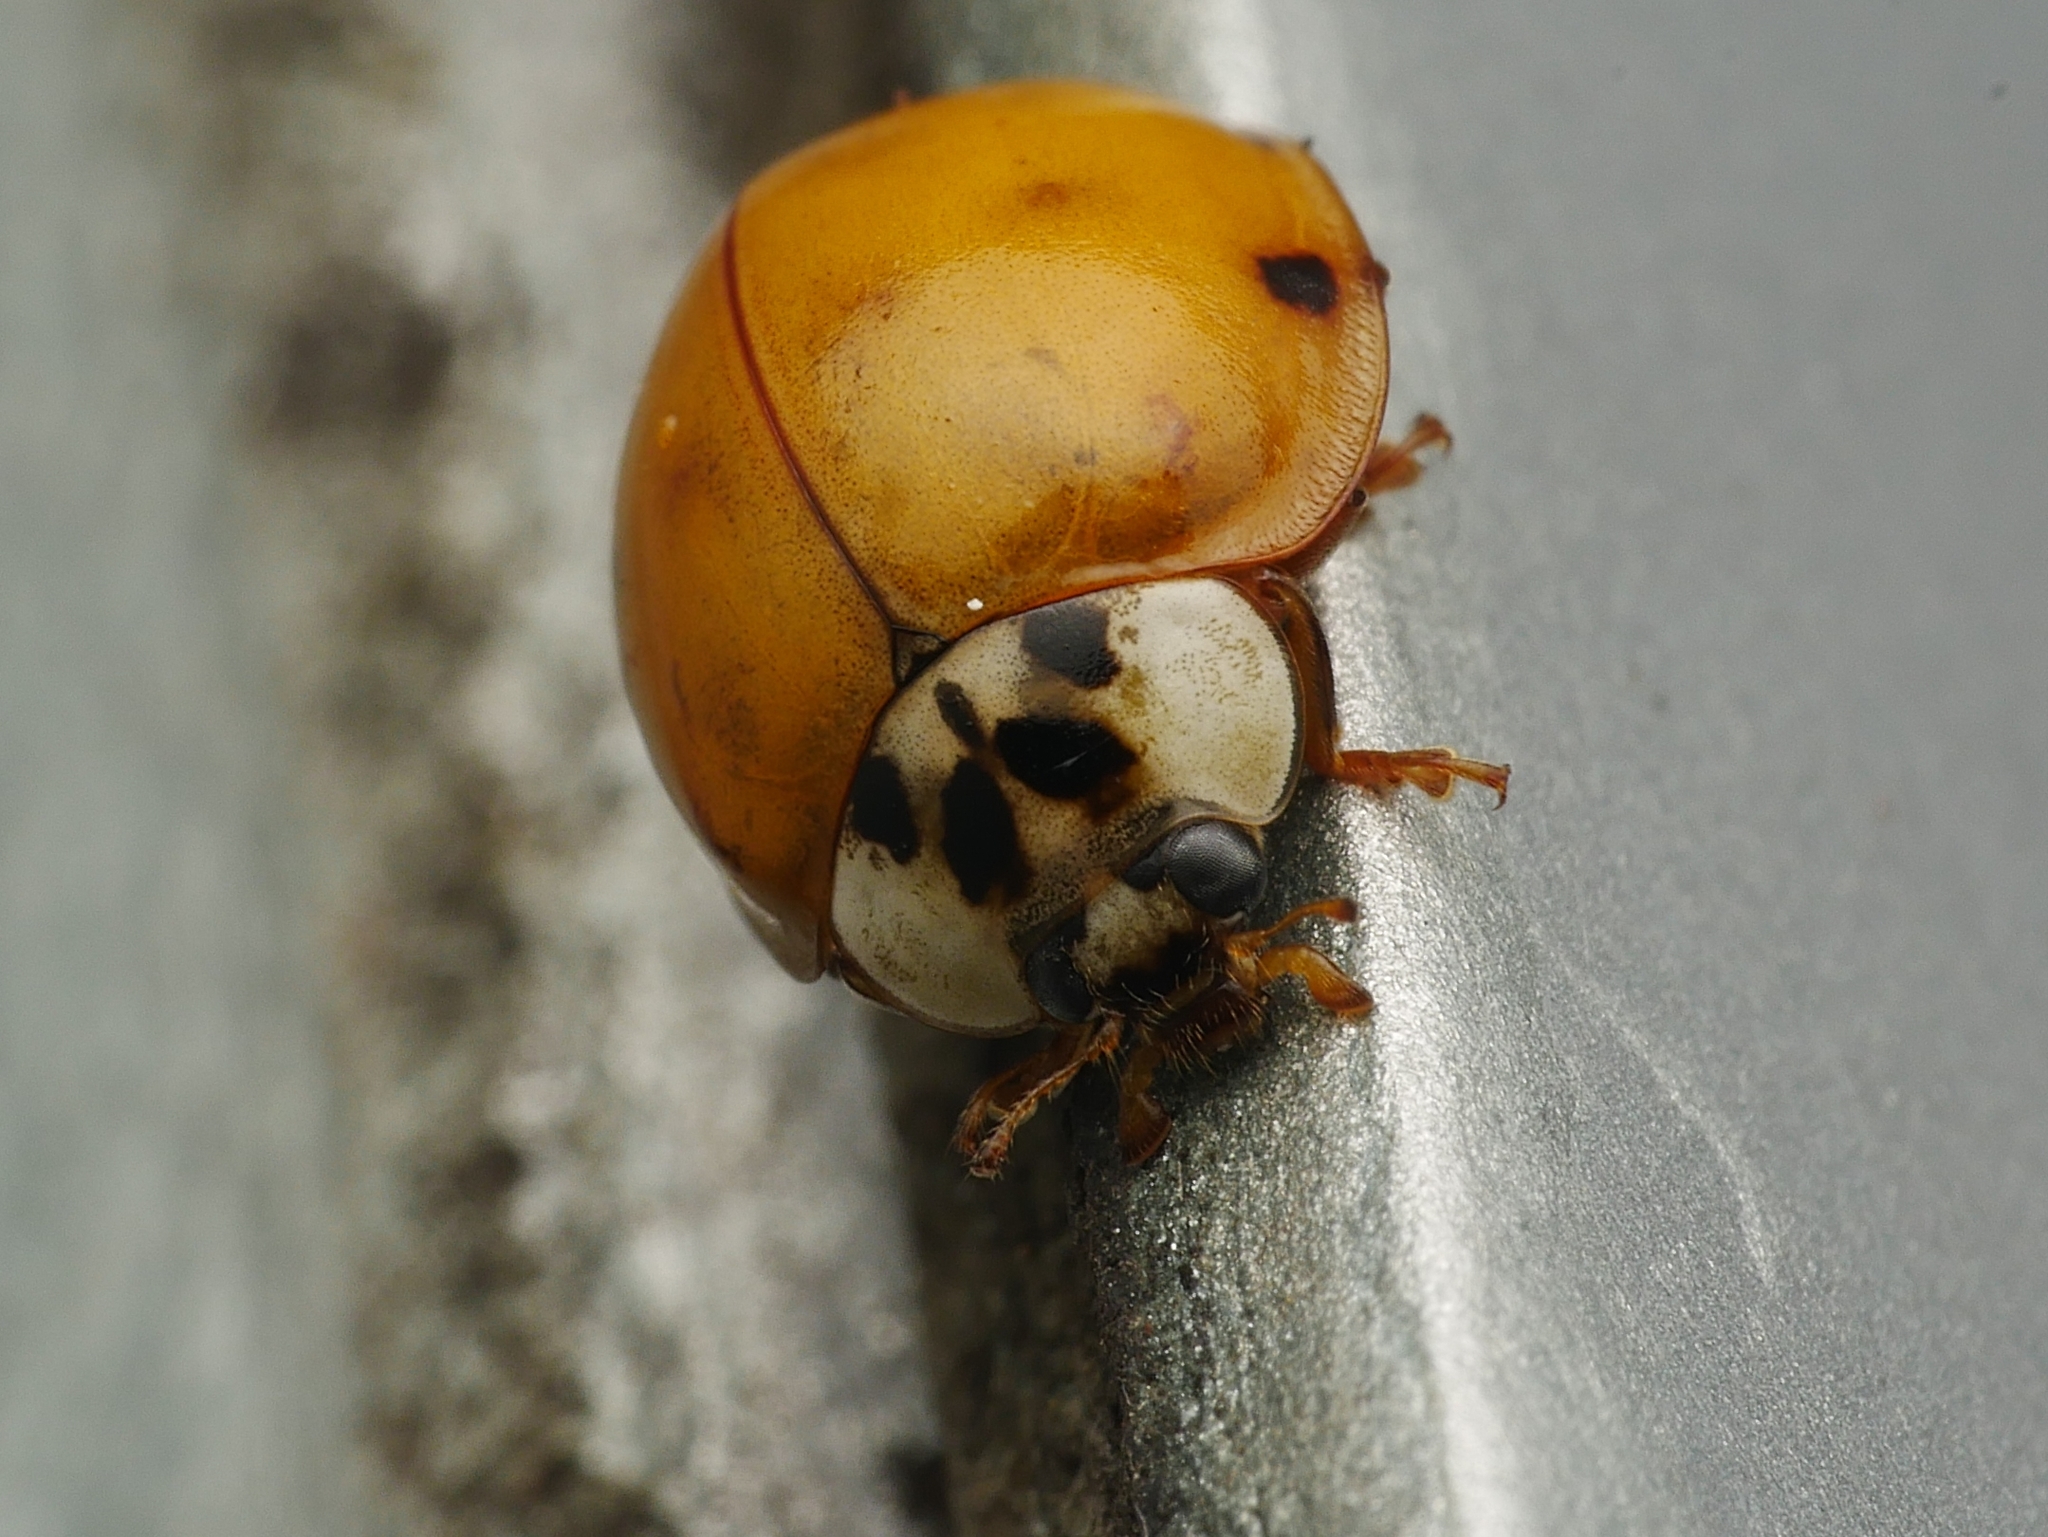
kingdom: Animalia
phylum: Arthropoda
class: Insecta
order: Coleoptera
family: Coccinellidae
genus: Harmonia
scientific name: Harmonia axyridis
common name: Harlequin ladybird
